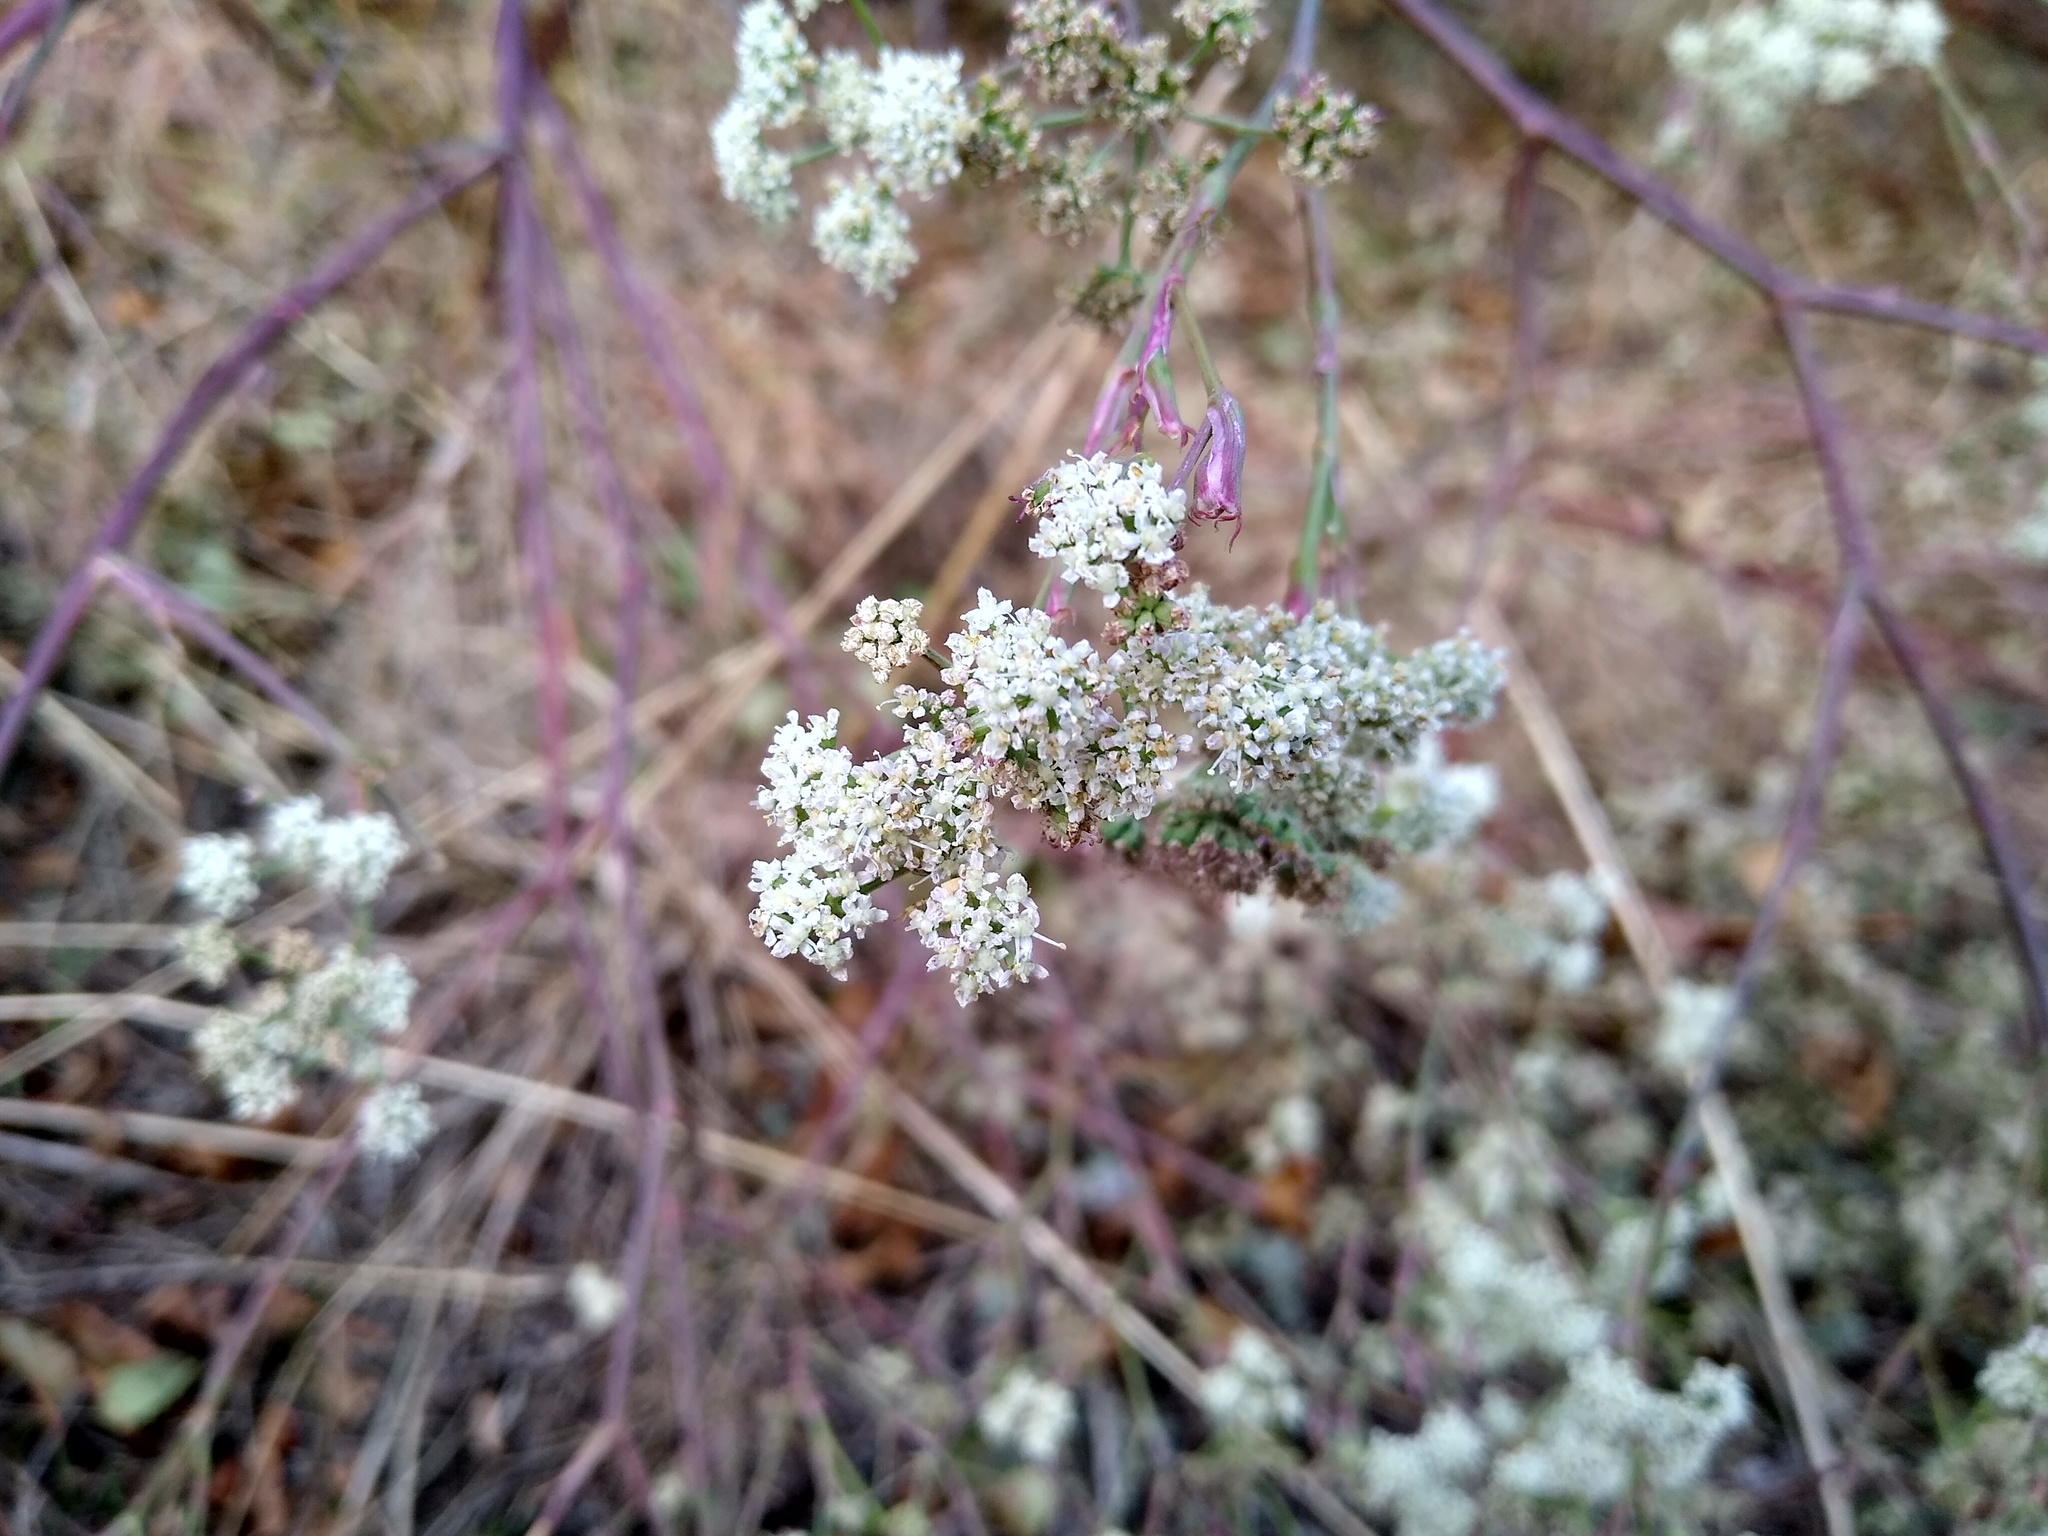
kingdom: Plantae
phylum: Tracheophyta
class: Magnoliopsida
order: Apiales
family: Apiaceae
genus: Seseli
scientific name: Seseli arenarium
